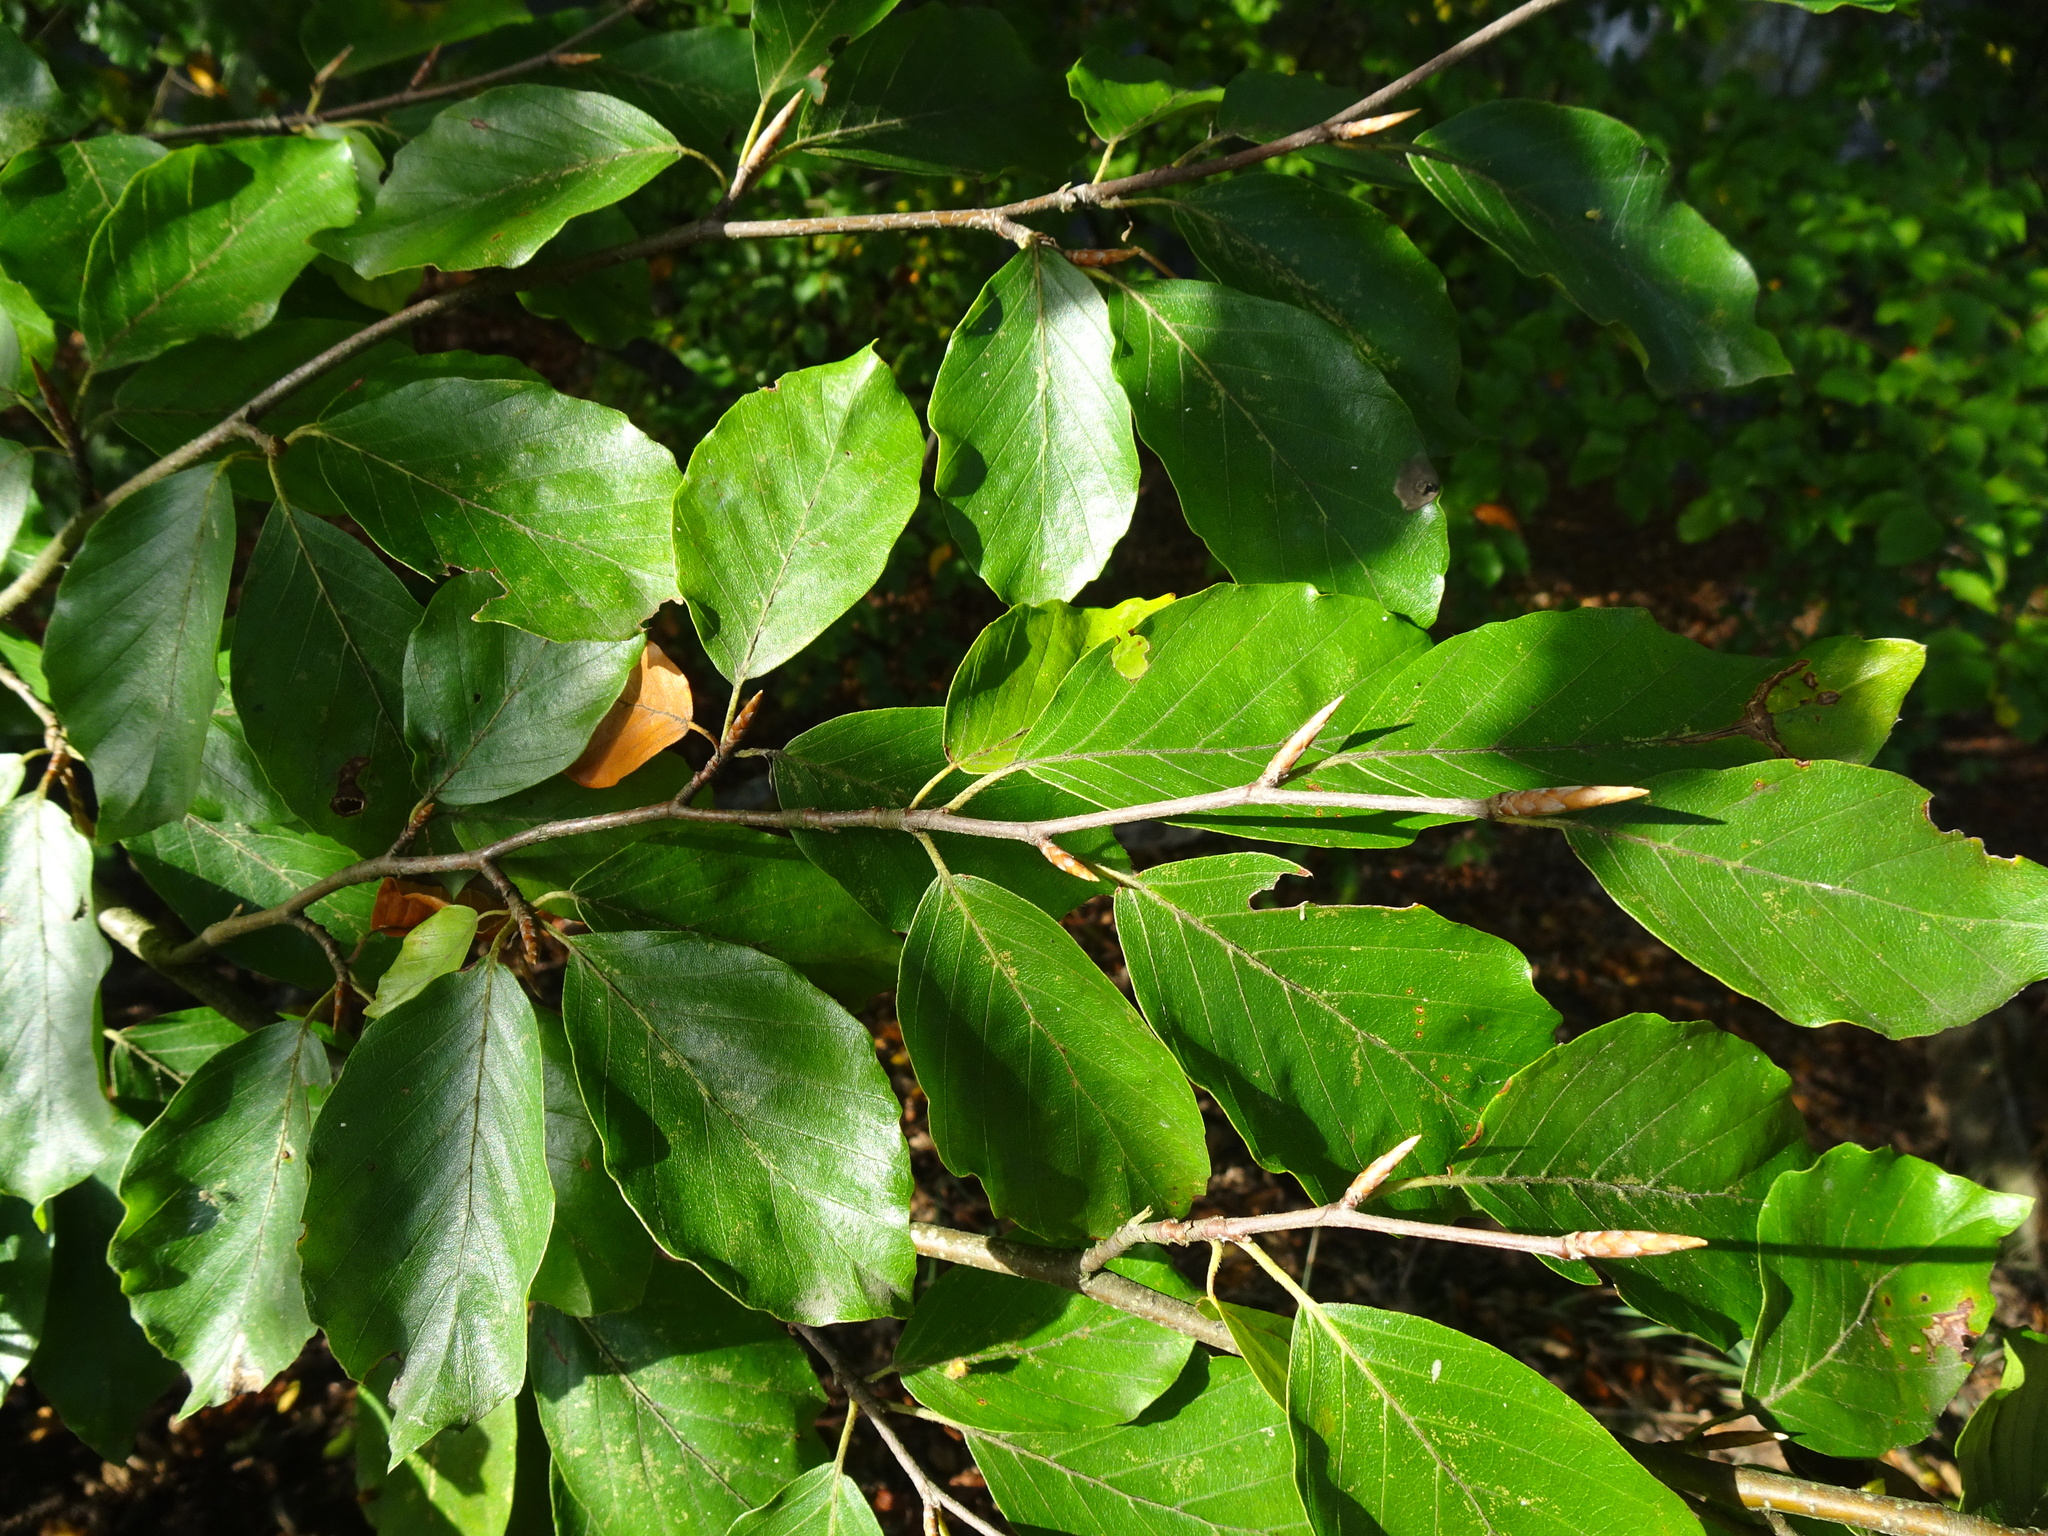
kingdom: Plantae
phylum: Tracheophyta
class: Magnoliopsida
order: Fagales
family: Fagaceae
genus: Fagus
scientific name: Fagus sylvatica
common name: Beech
